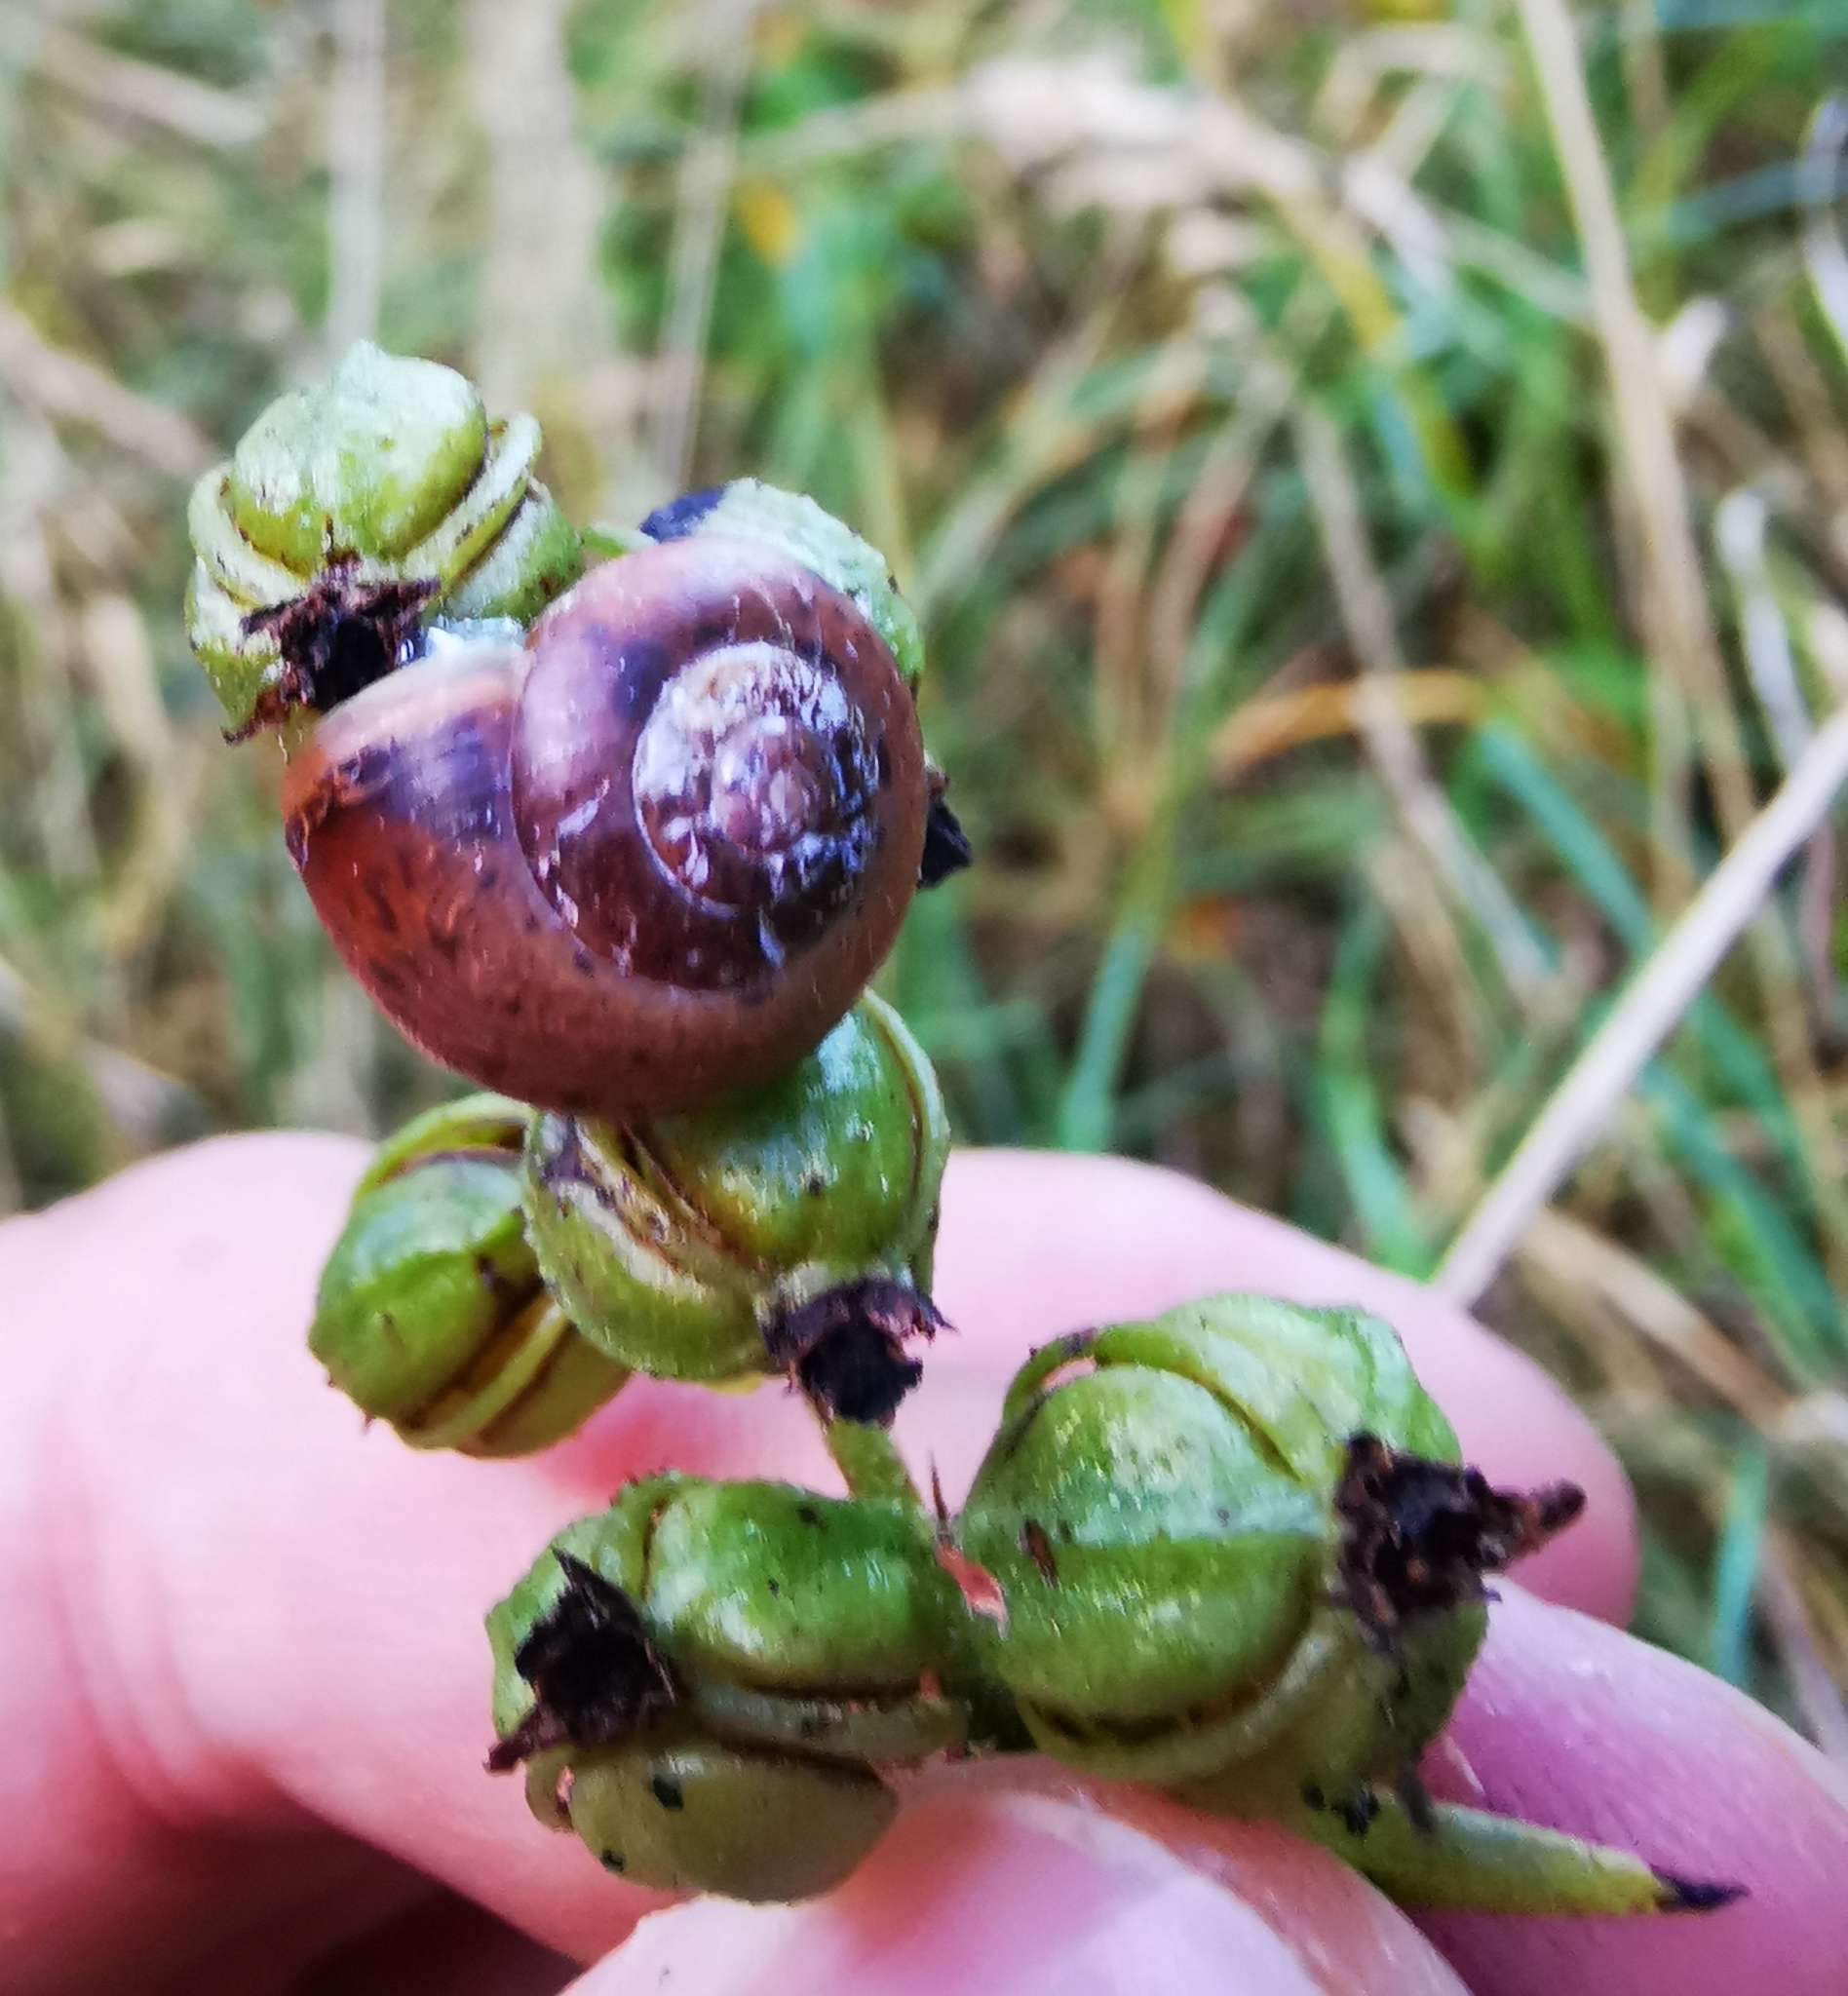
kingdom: Animalia
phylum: Mollusca
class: Gastropoda
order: Stylommatophora
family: Camaenidae
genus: Fruticicola
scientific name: Fruticicola fruticum
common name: Bush snail
